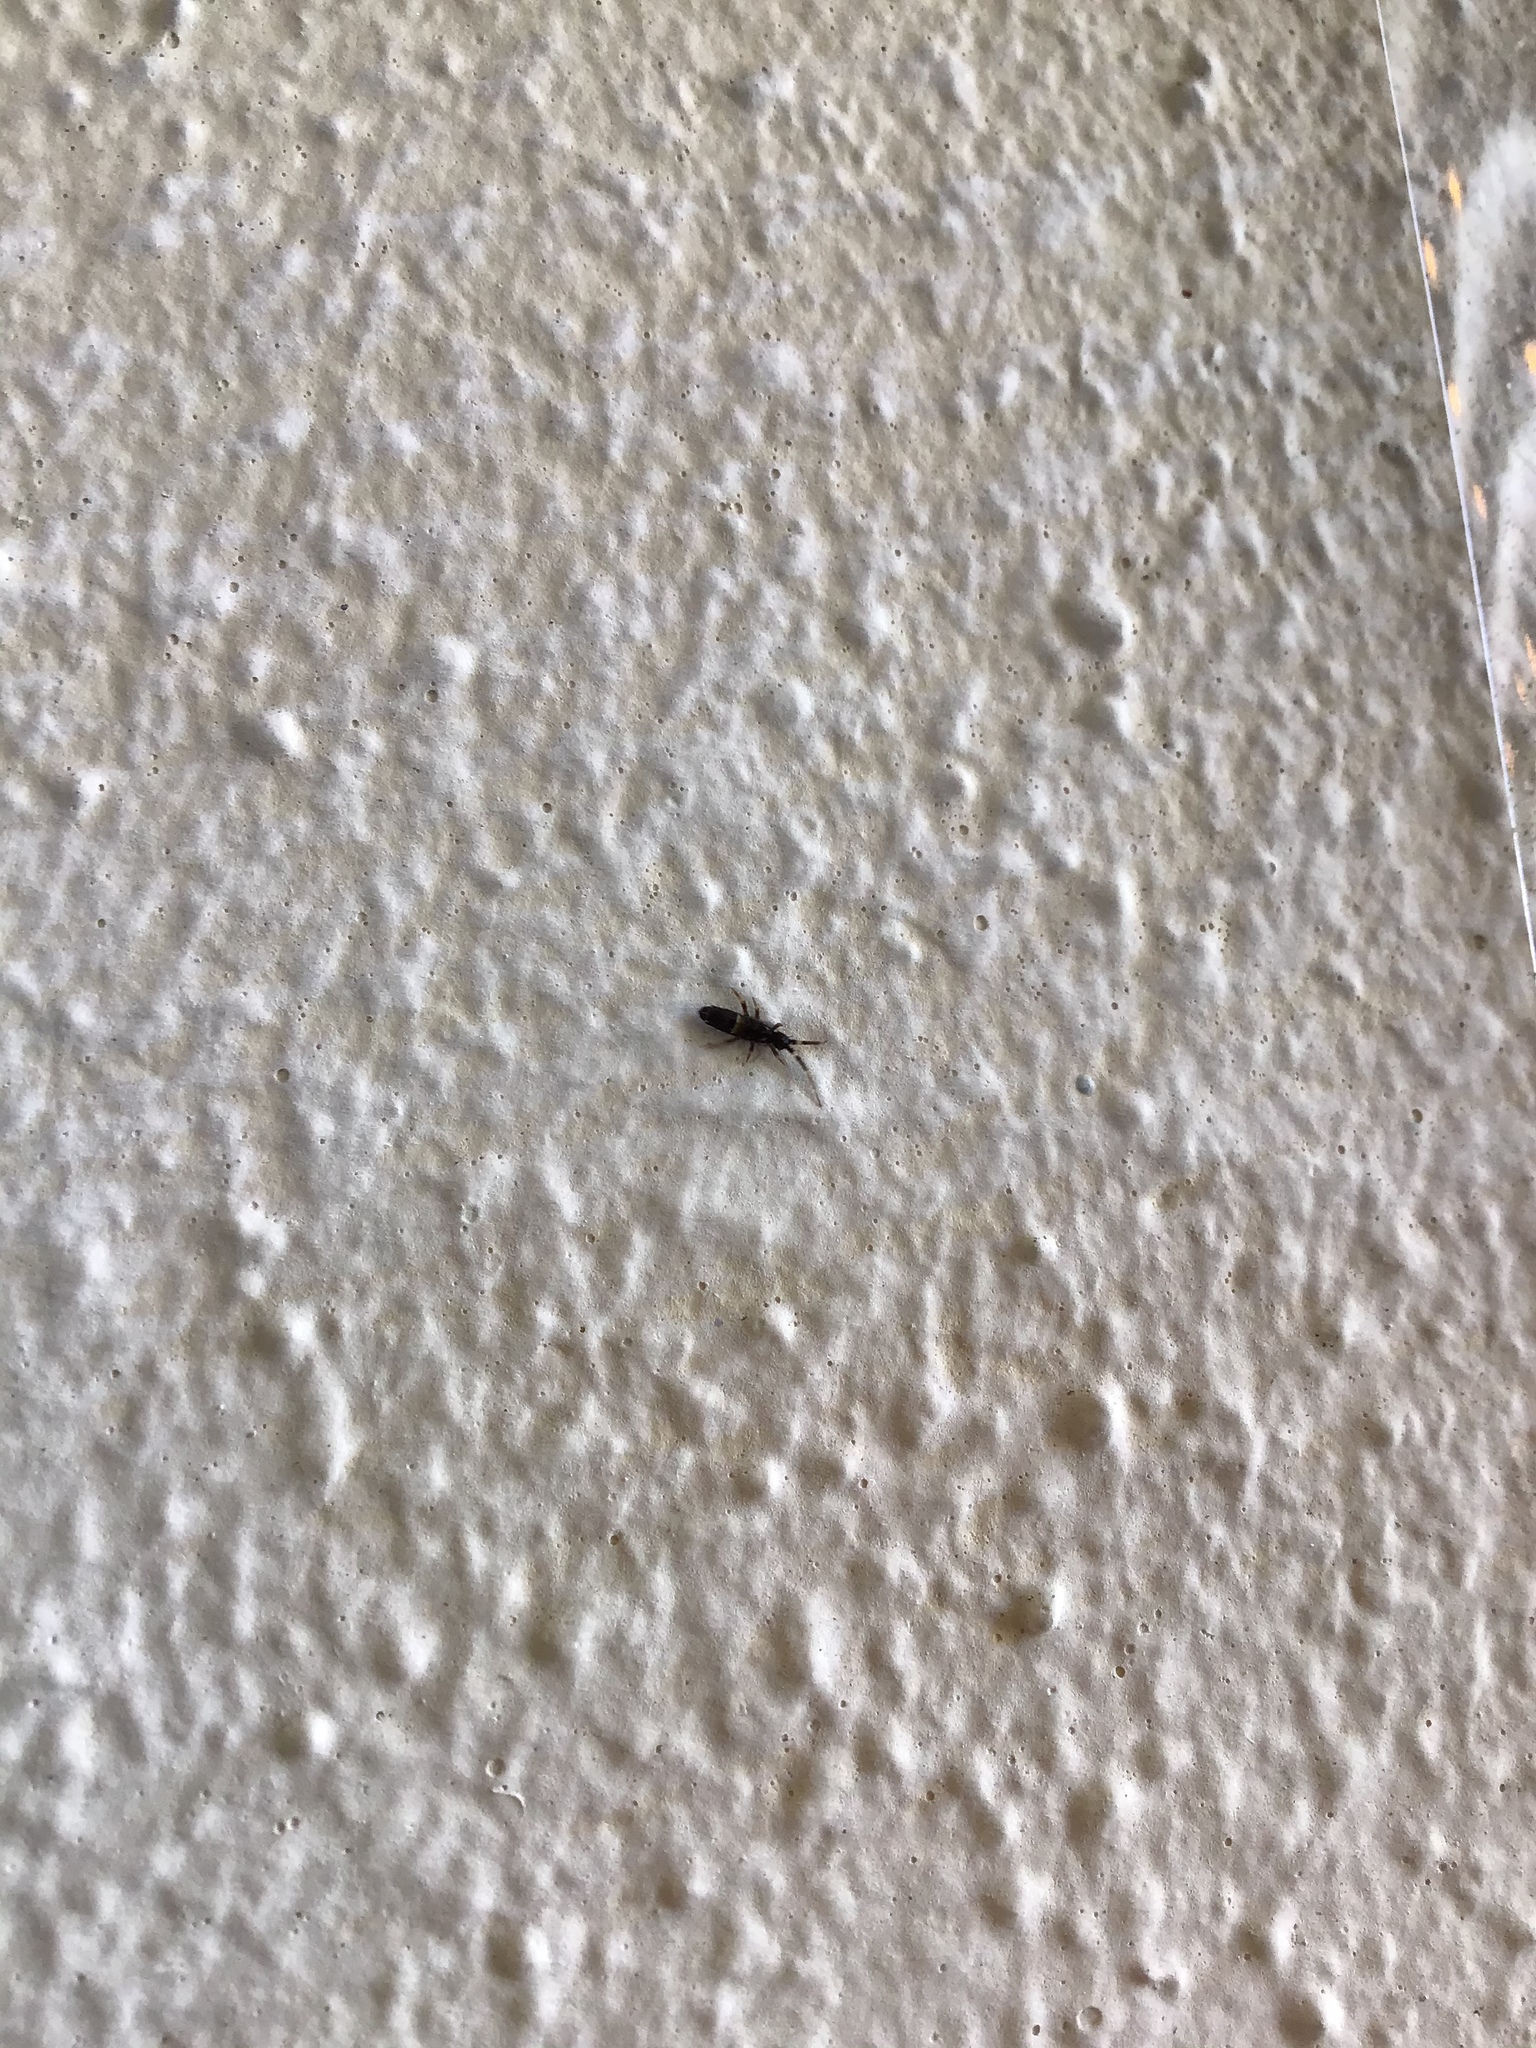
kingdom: Animalia
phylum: Arthropoda
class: Collembola
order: Entomobryomorpha
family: Orchesellidae
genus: Orchesella
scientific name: Orchesella cincta
